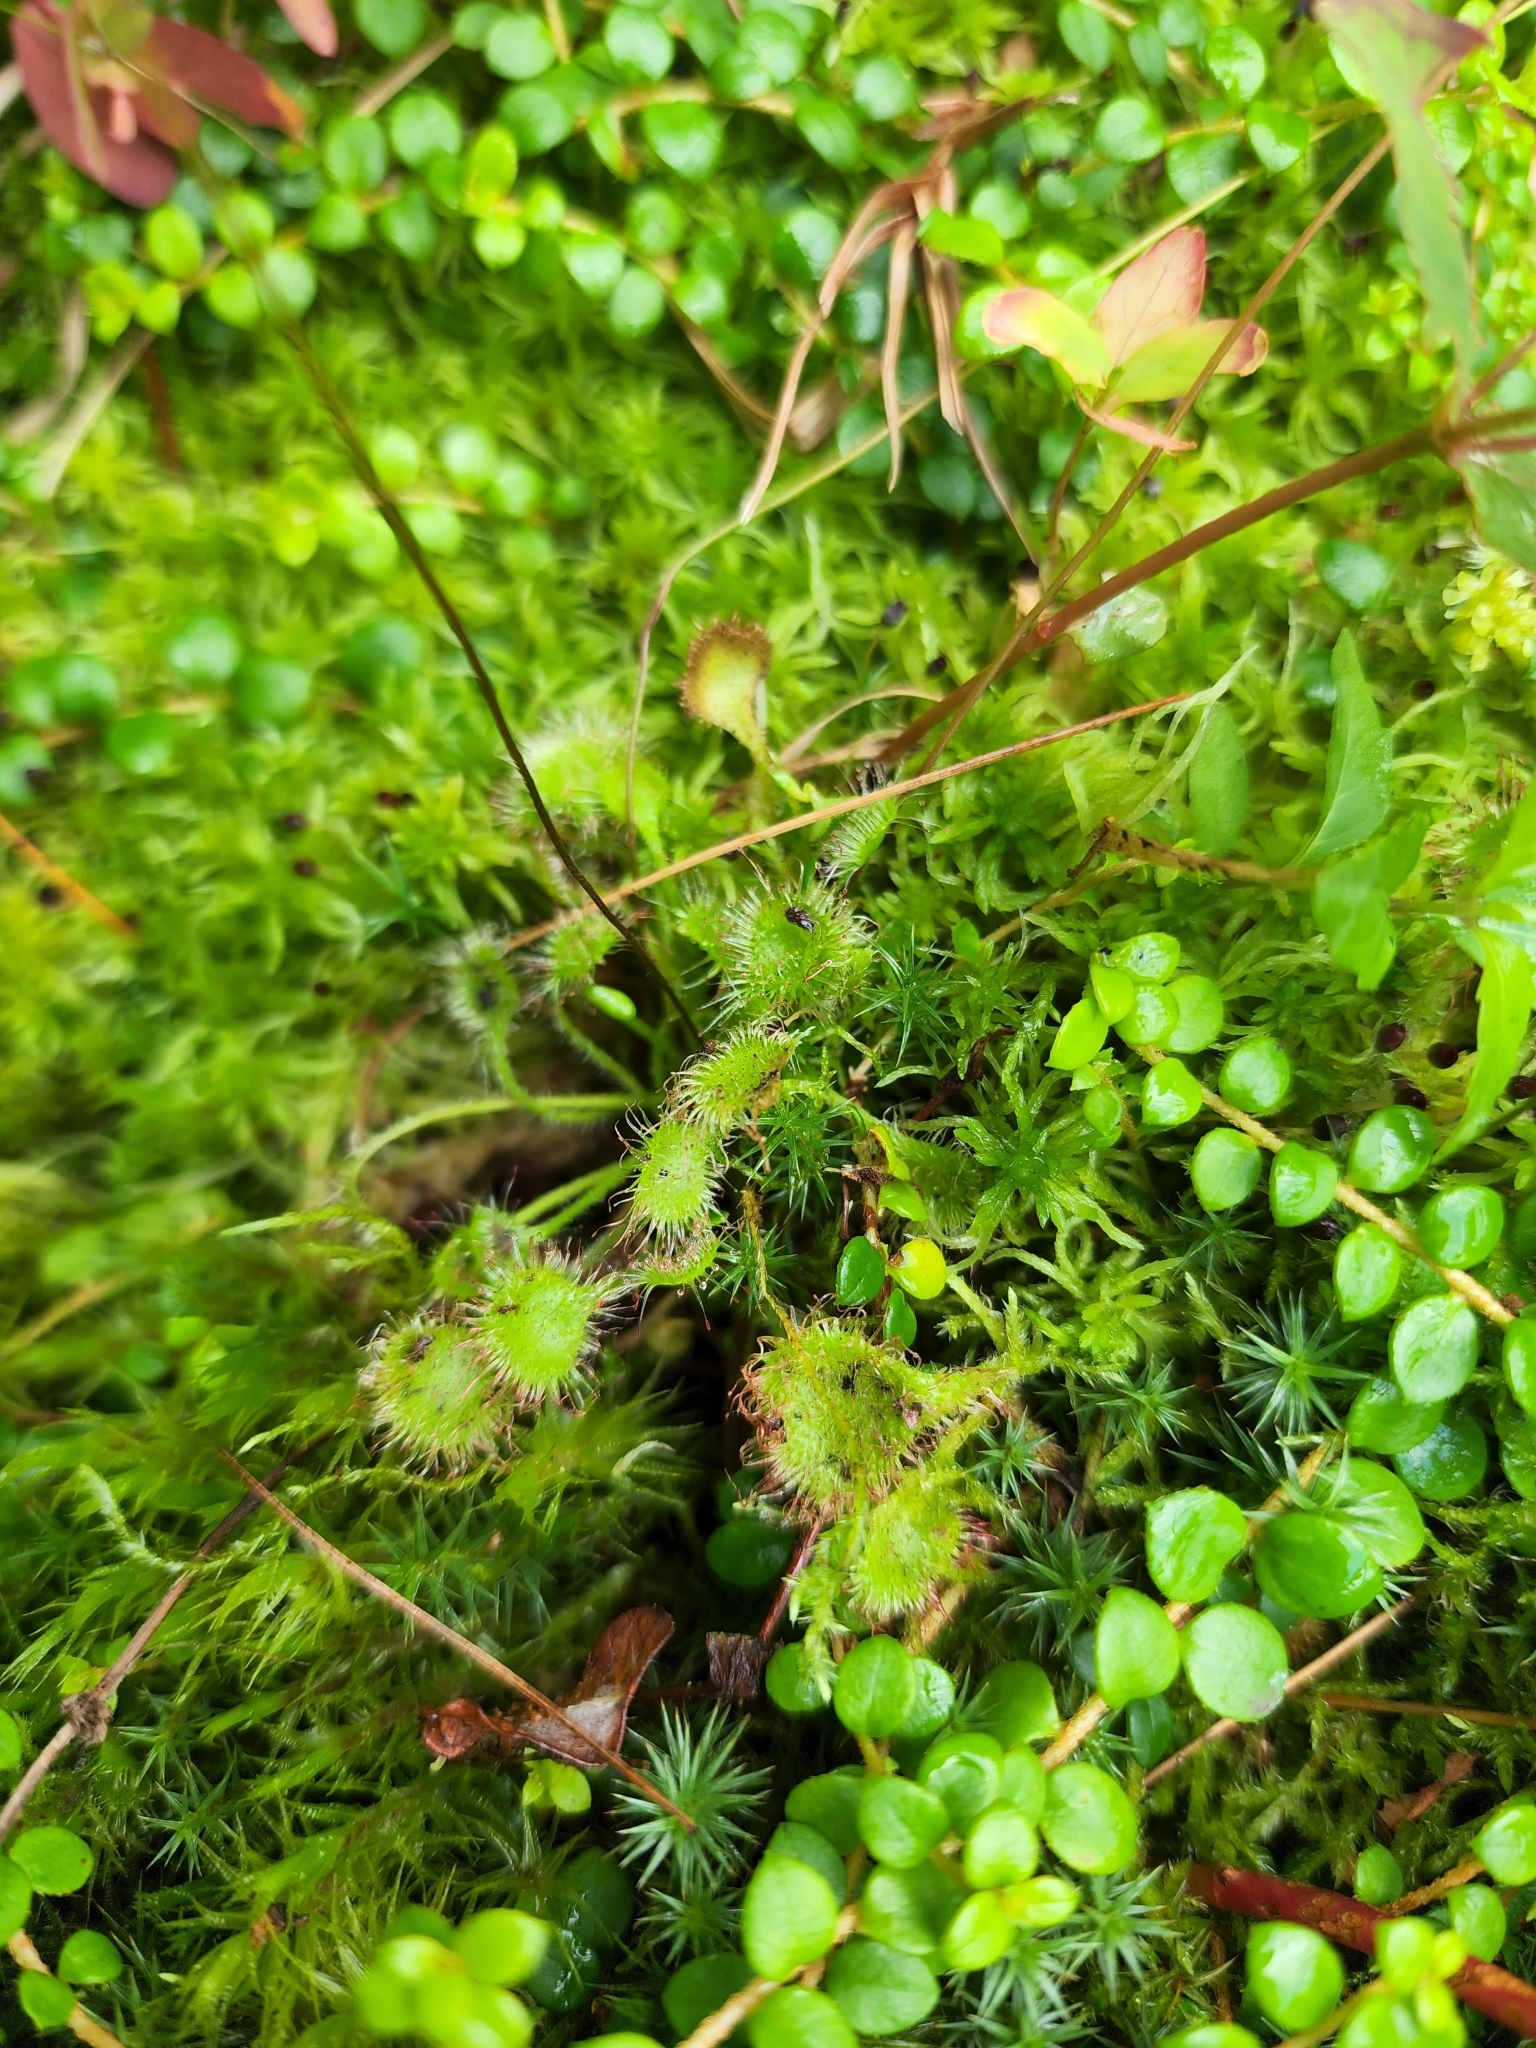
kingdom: Plantae
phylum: Tracheophyta
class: Magnoliopsida
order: Caryophyllales
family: Droseraceae
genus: Drosera
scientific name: Drosera rotundifolia
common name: Round-leaved sundew
